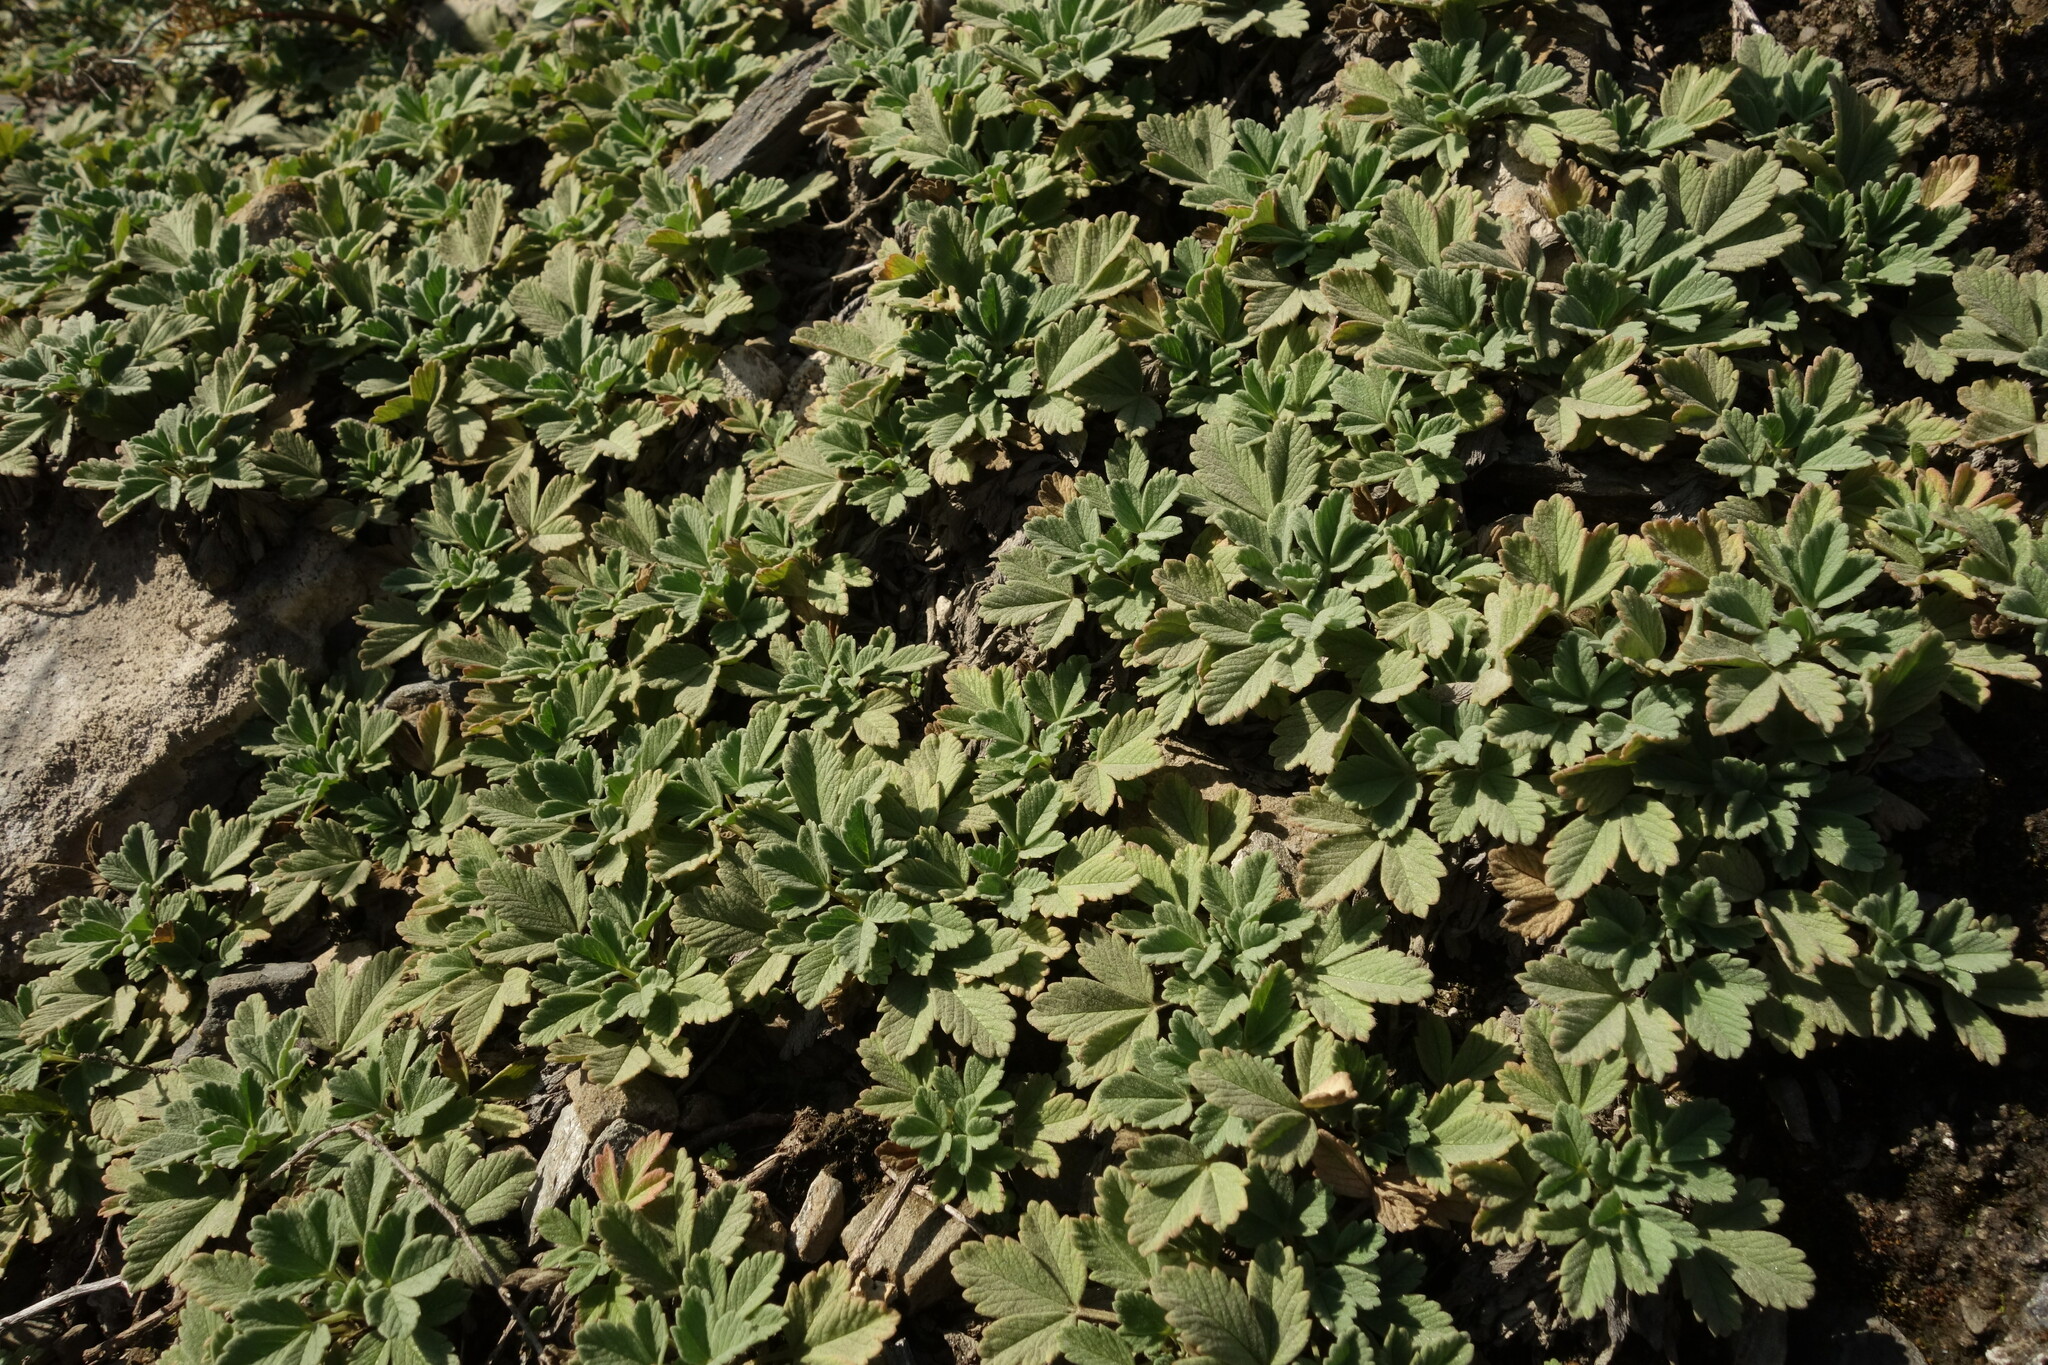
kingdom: Plantae
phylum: Tracheophyta
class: Magnoliopsida
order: Rosales
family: Rosaceae
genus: Potentilla
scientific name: Potentilla acaulis
